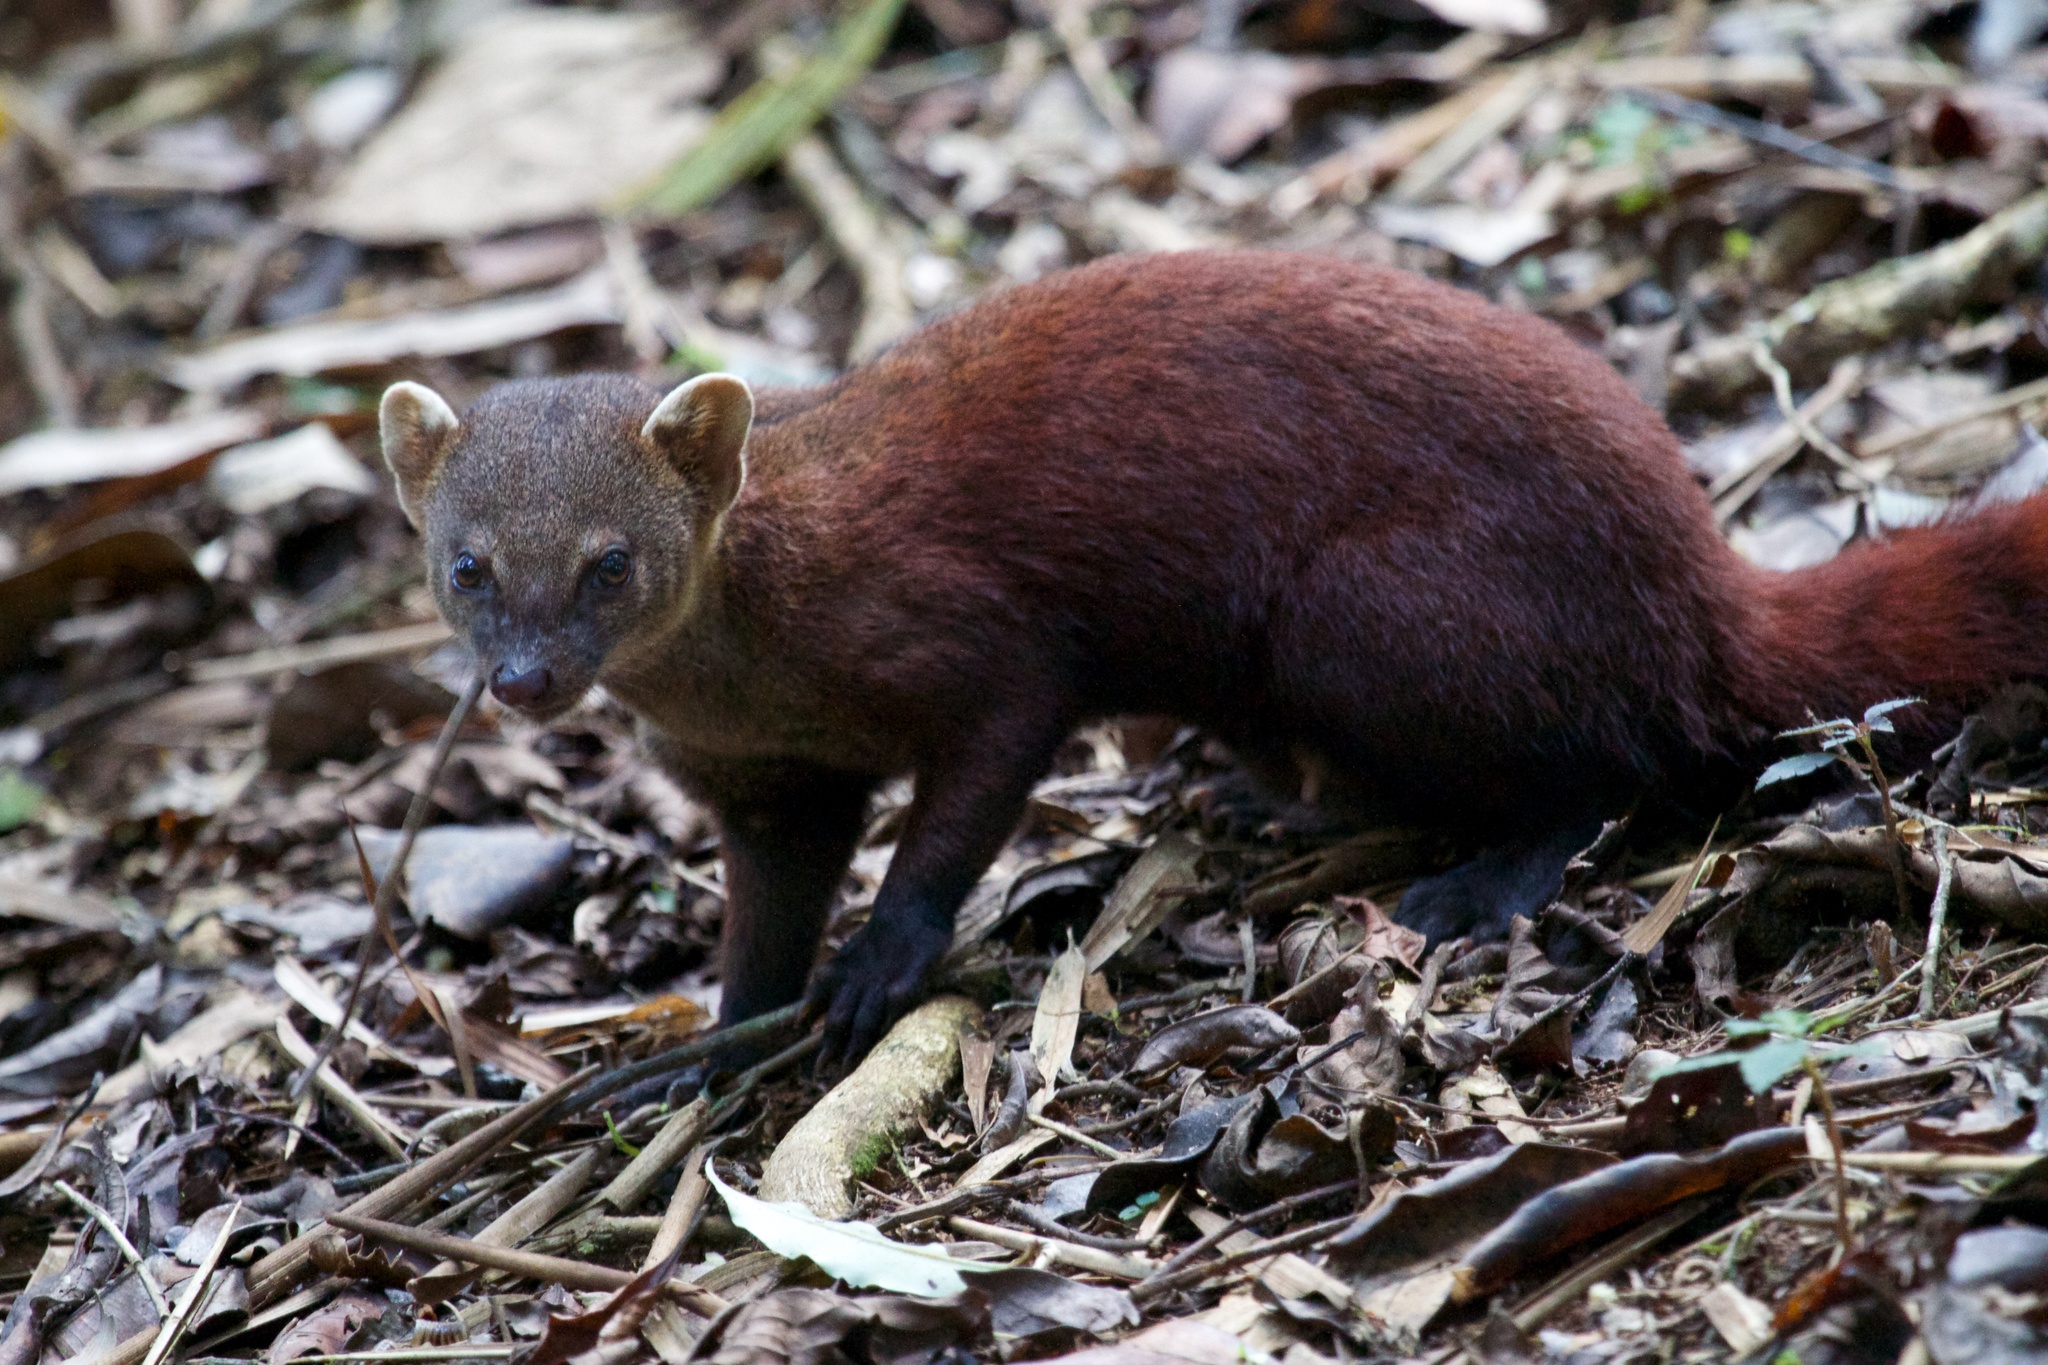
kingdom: Animalia
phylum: Chordata
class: Mammalia
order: Carnivora
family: Eupleridae
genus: Galidia
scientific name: Galidia elegans
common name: Ring-tailed mongoose
